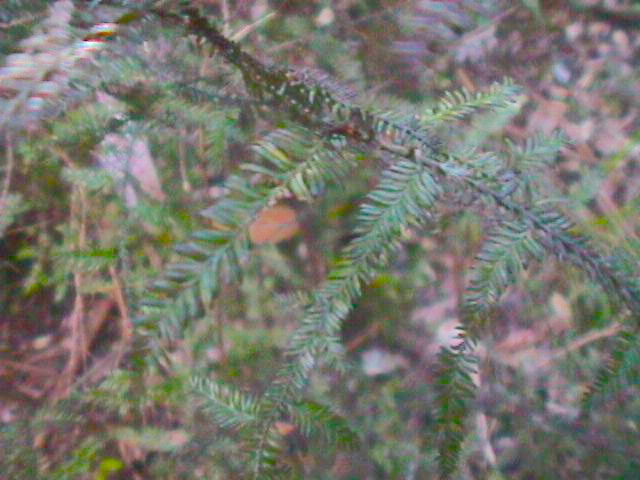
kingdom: Plantae
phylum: Tracheophyta
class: Pinopsida
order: Pinales
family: Podocarpaceae
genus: Dacrycarpus
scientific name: Dacrycarpus dacrydioides
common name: White pine
